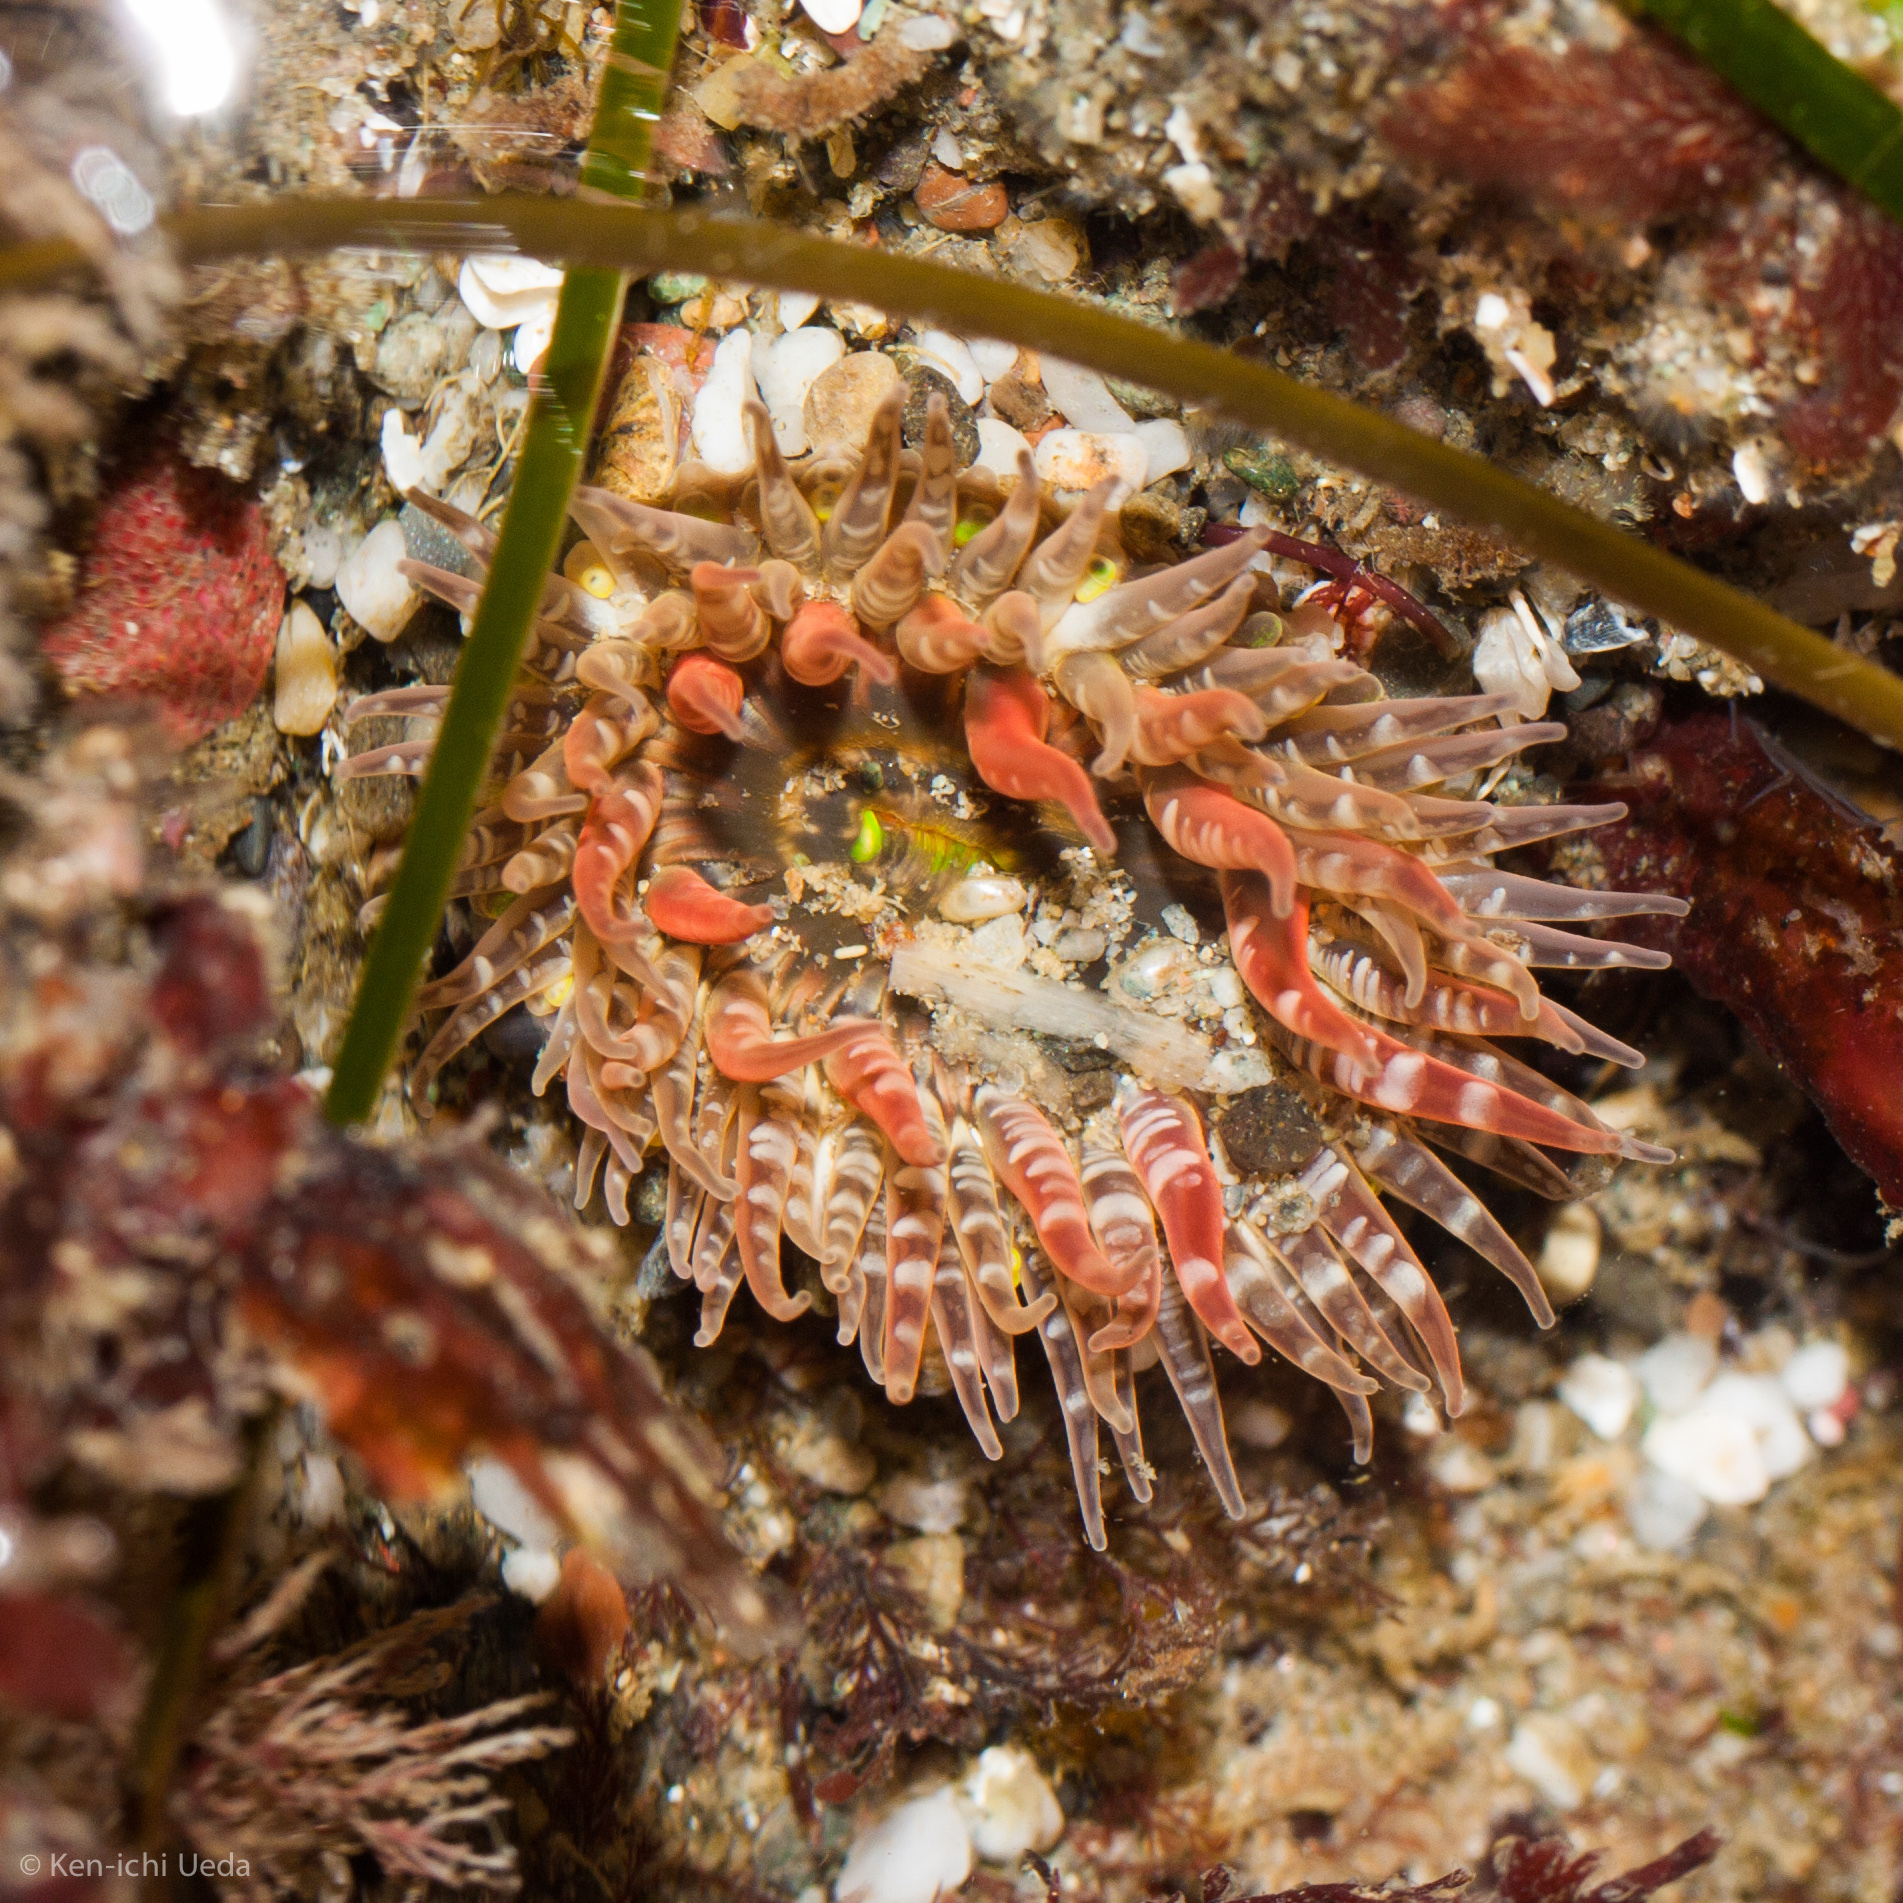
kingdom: Animalia
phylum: Cnidaria
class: Anthozoa
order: Actiniaria
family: Actiniidae
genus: Anthopleura
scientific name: Anthopleura artemisia
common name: Buried sea anemone
